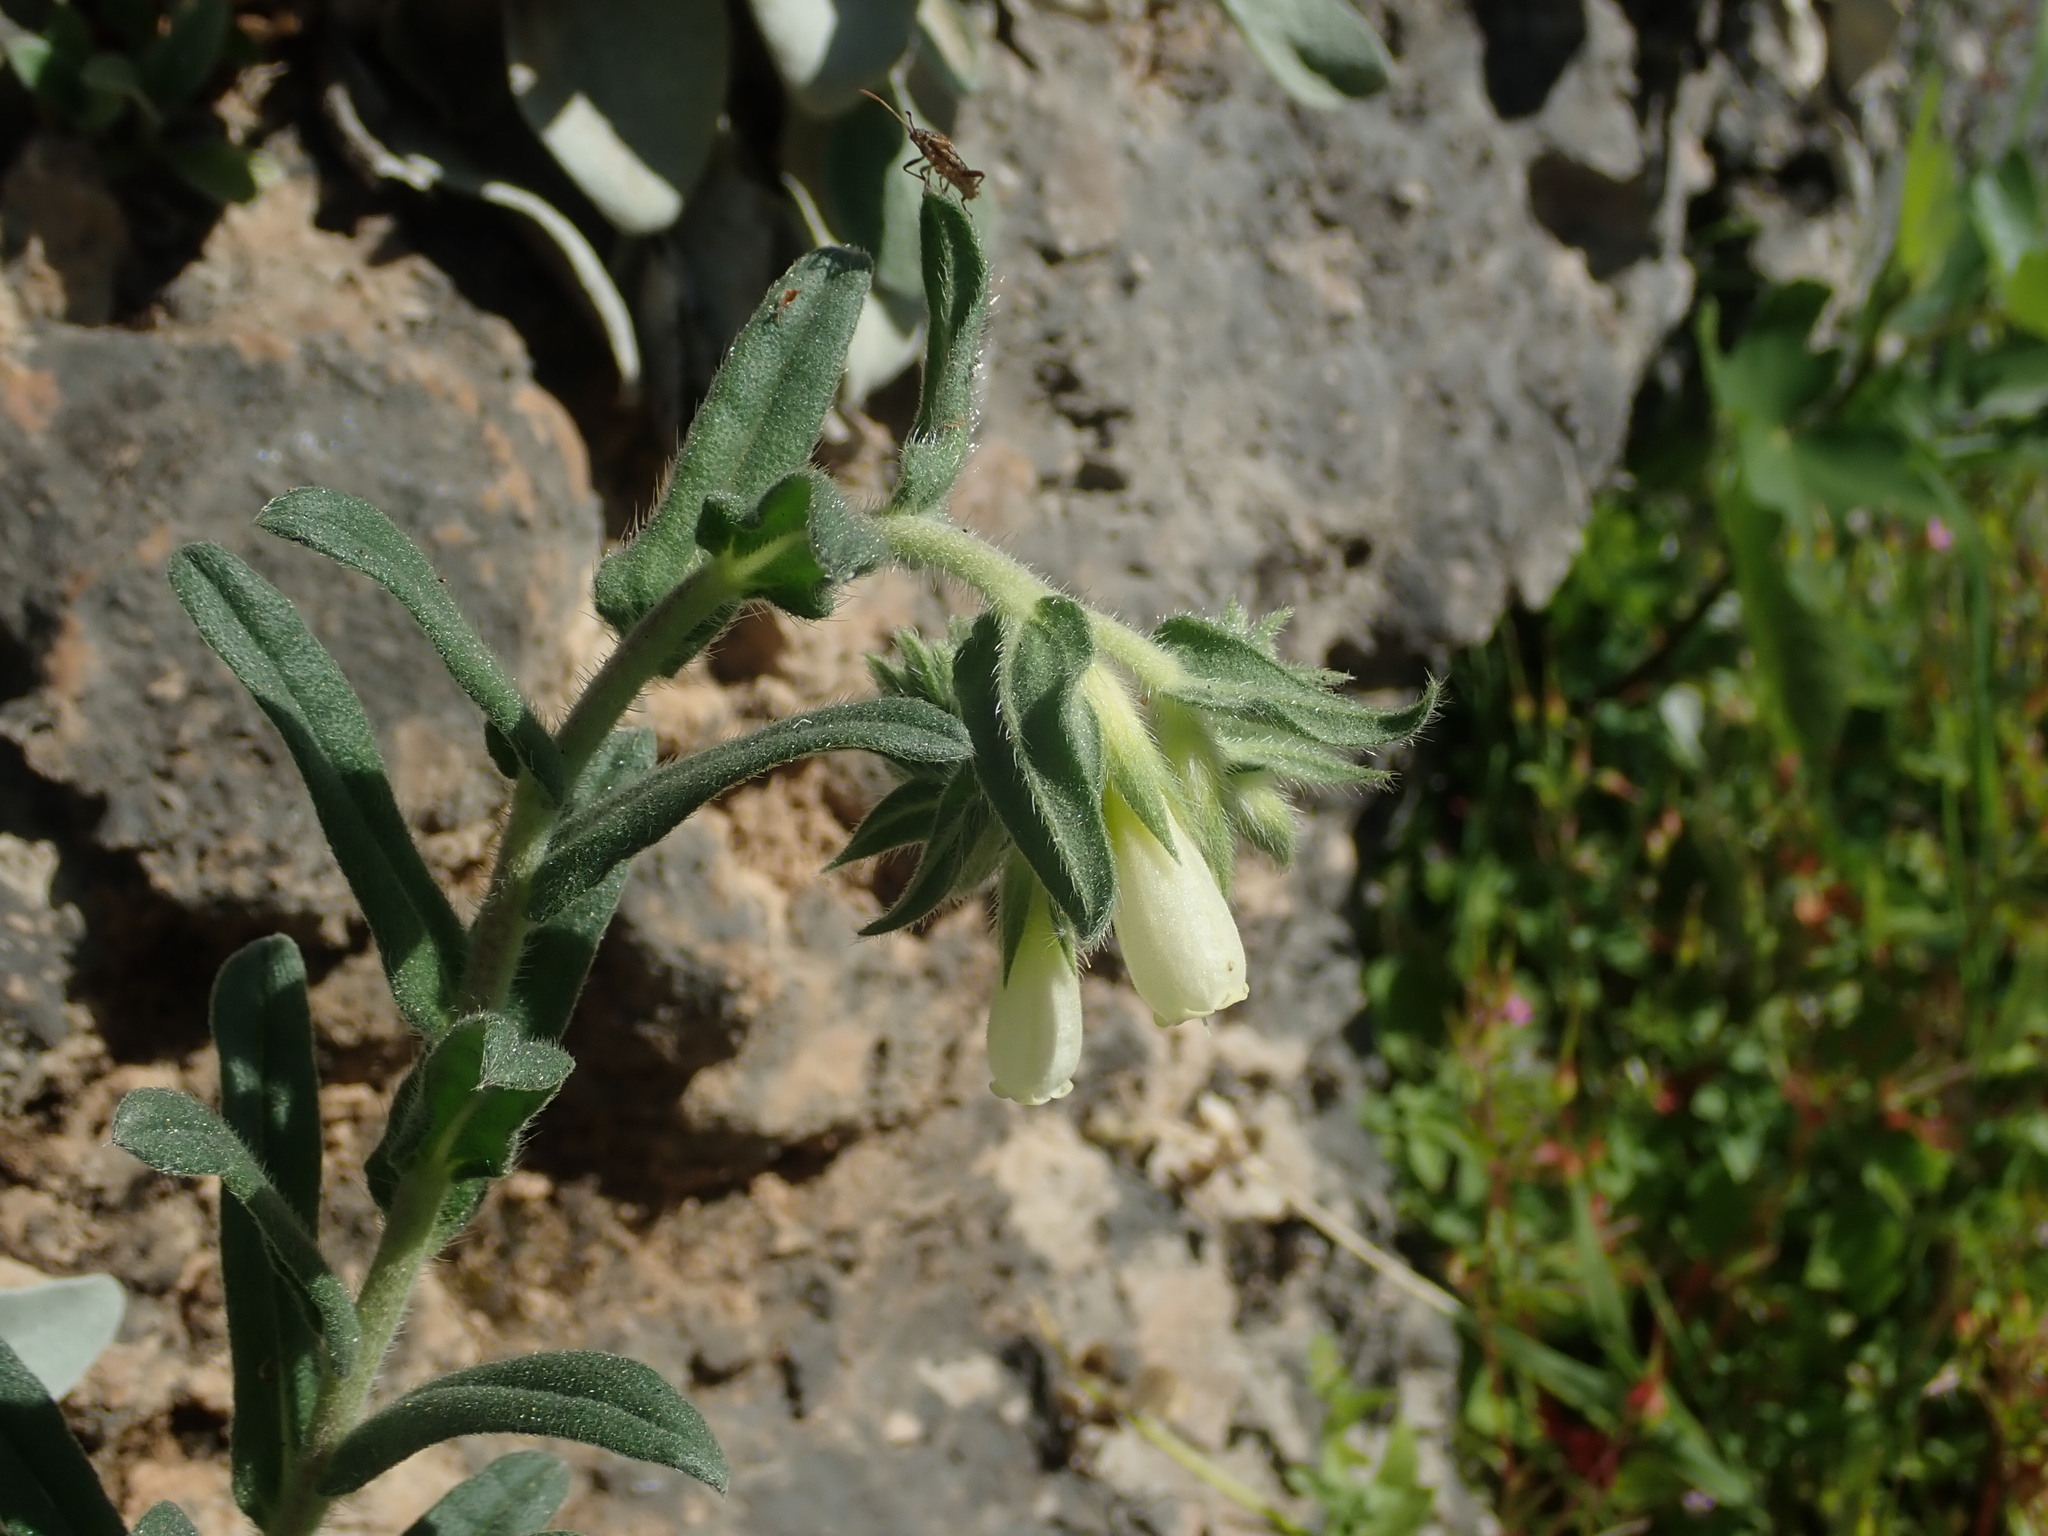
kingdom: Plantae
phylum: Tracheophyta
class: Magnoliopsida
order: Boraginales
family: Boraginaceae
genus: Onosma
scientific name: Onosma echioides
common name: Goldendrop
